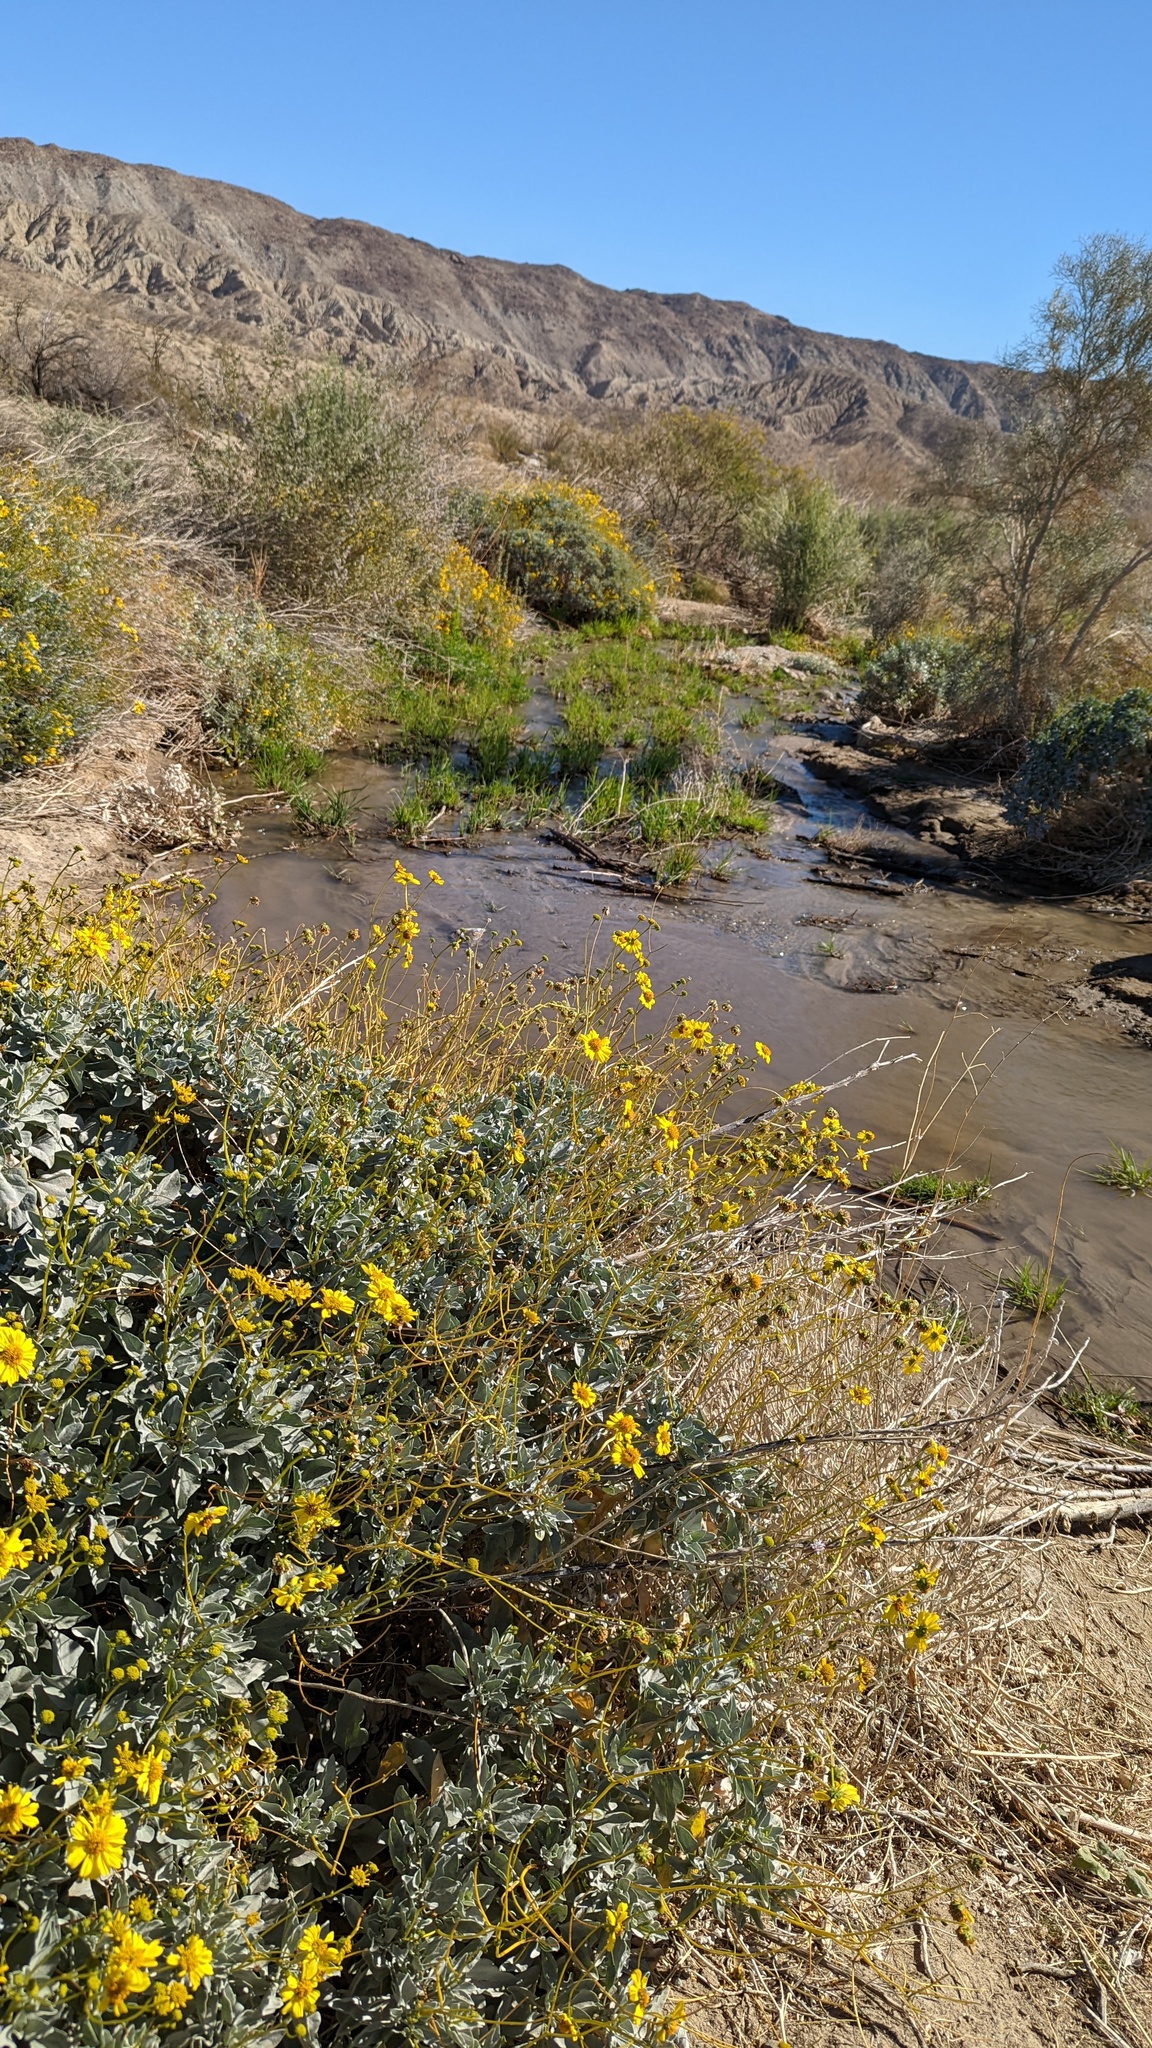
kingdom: Plantae
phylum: Tracheophyta
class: Magnoliopsida
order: Asterales
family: Asteraceae
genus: Encelia
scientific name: Encelia farinosa
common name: Brittlebush
